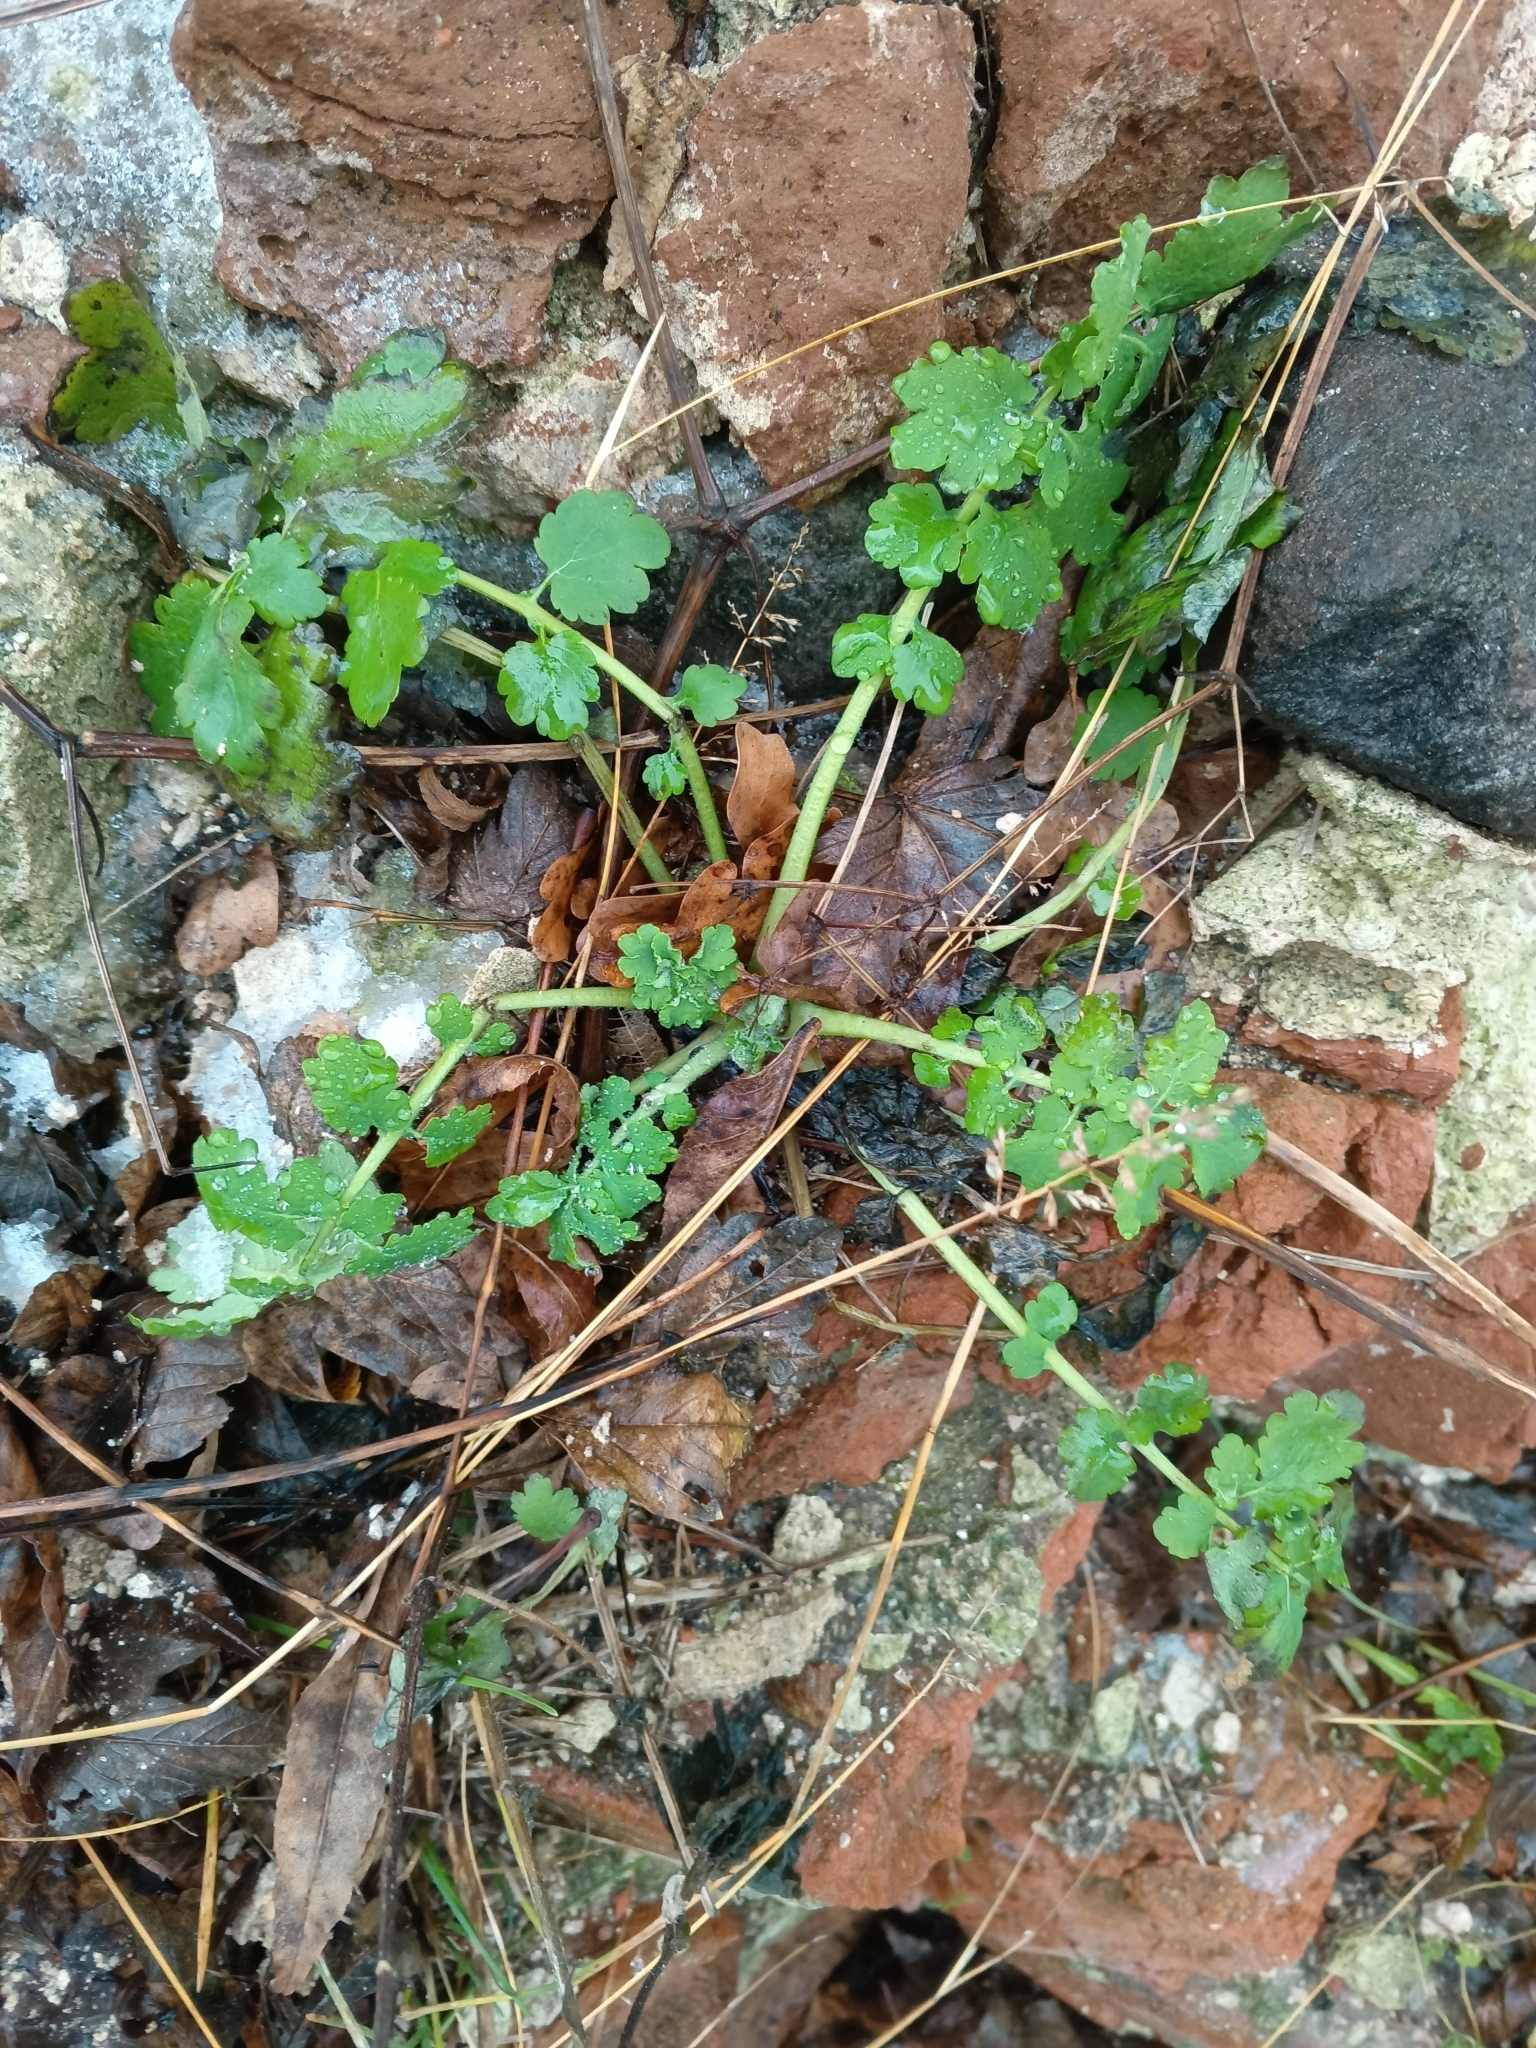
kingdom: Plantae
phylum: Tracheophyta
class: Magnoliopsida
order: Ranunculales
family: Papaveraceae
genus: Chelidonium
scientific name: Chelidonium majus
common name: Greater celandine
